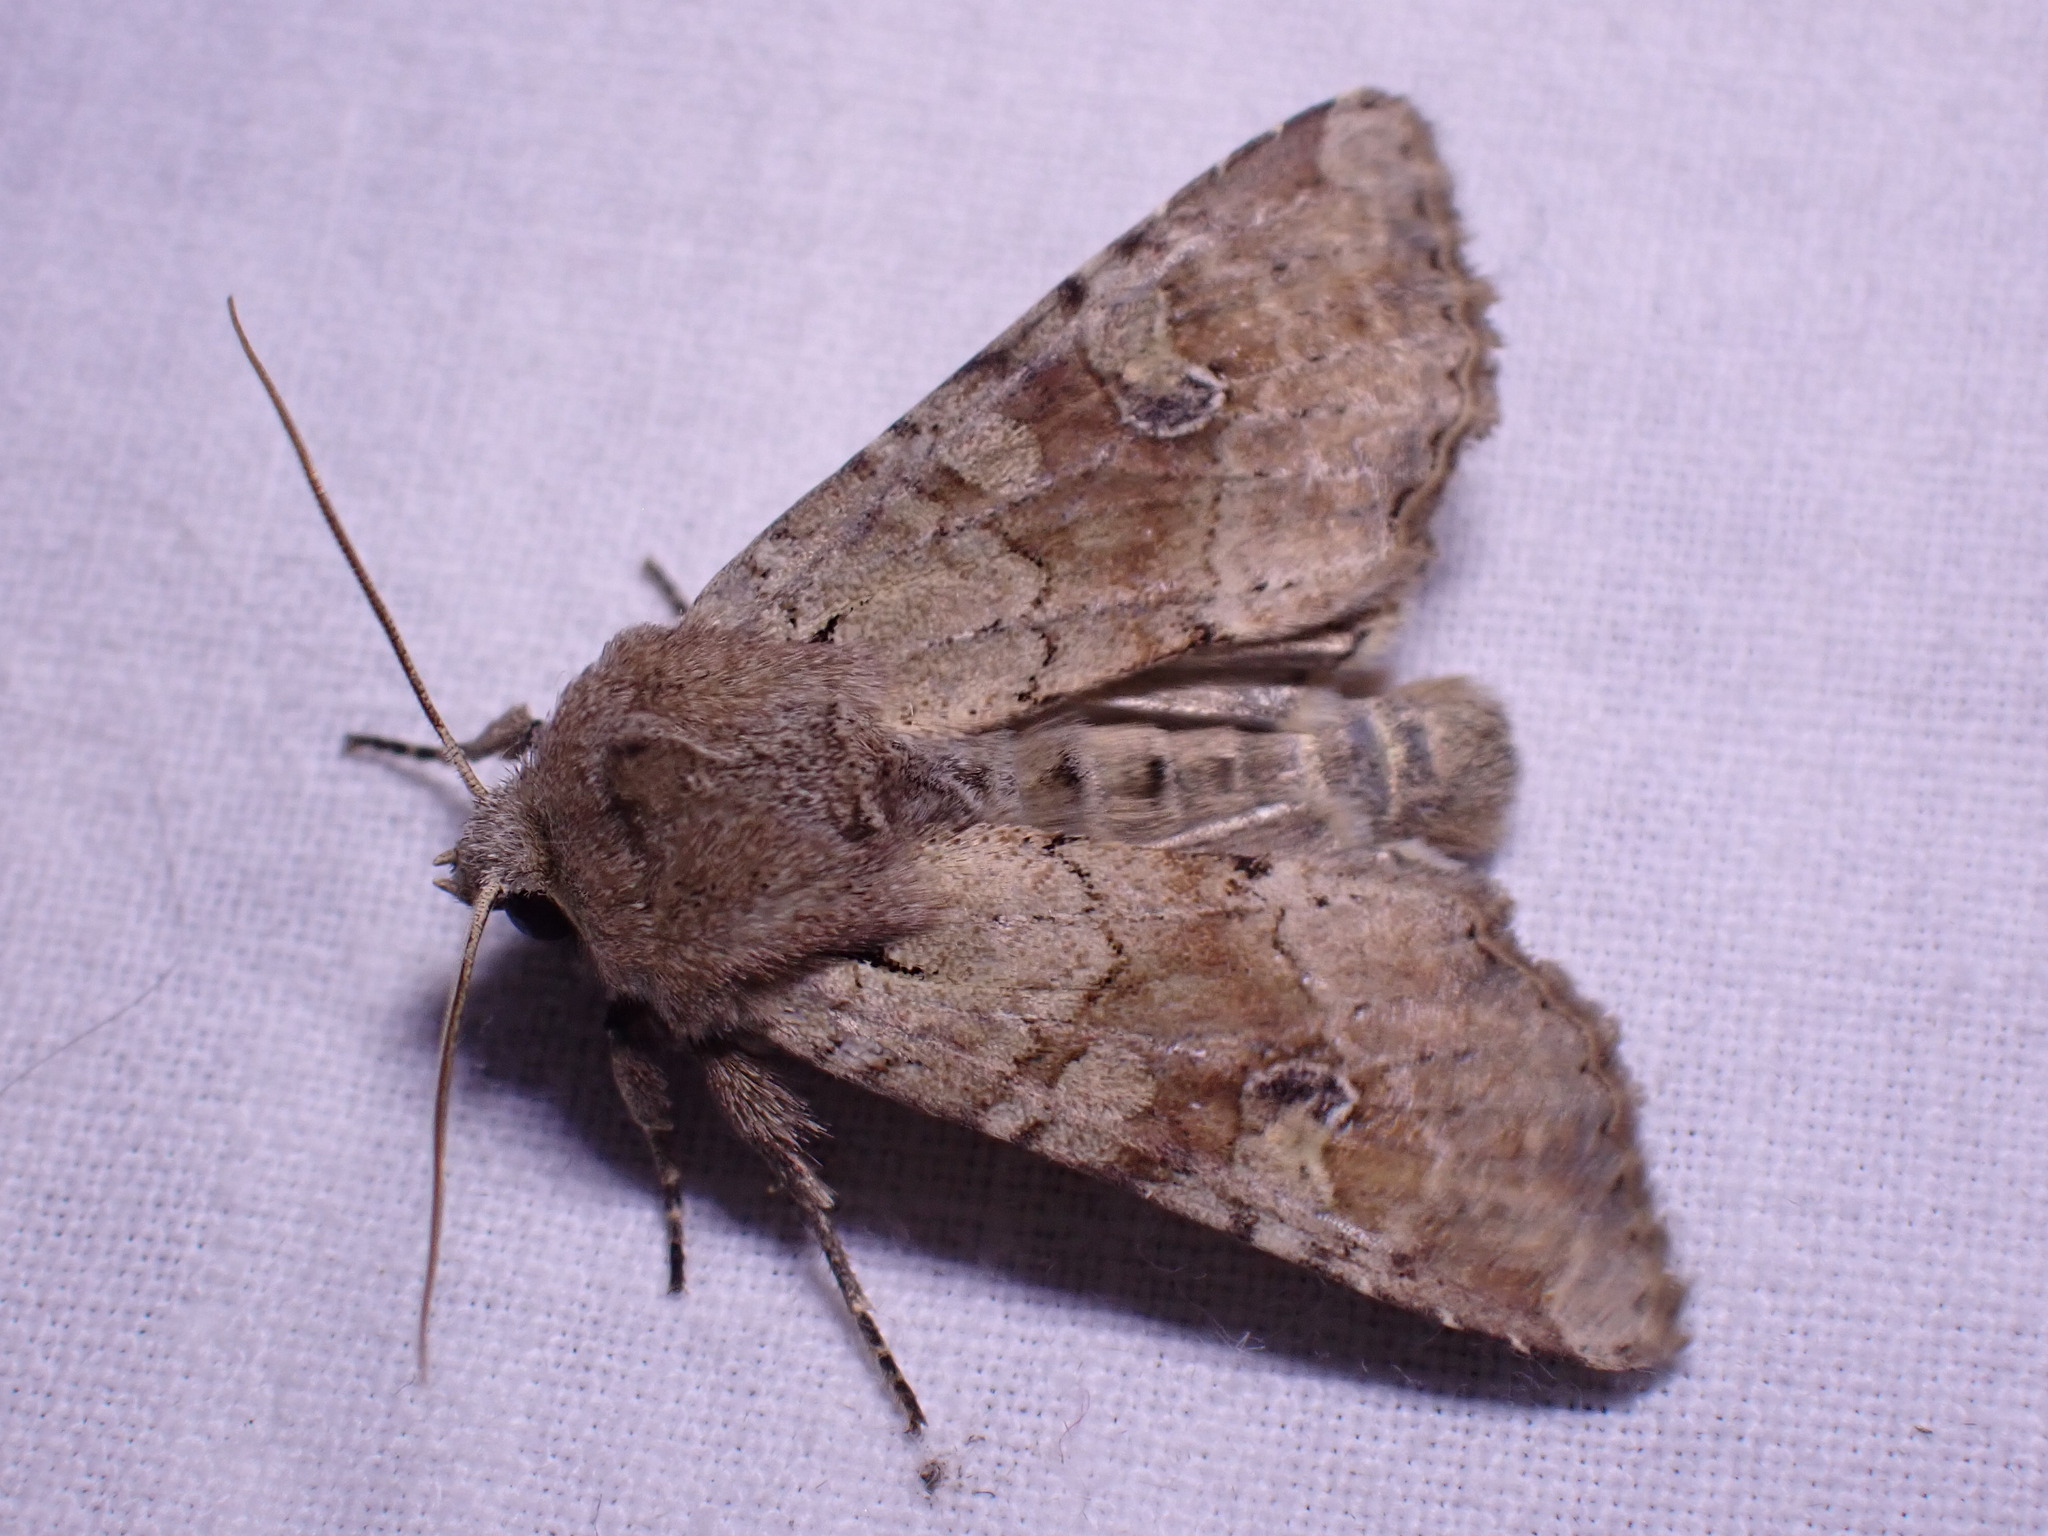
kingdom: Animalia
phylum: Arthropoda
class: Insecta
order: Lepidoptera
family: Noctuidae
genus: Apamea
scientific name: Apamea sordens
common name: Rustic shoulder-knot
